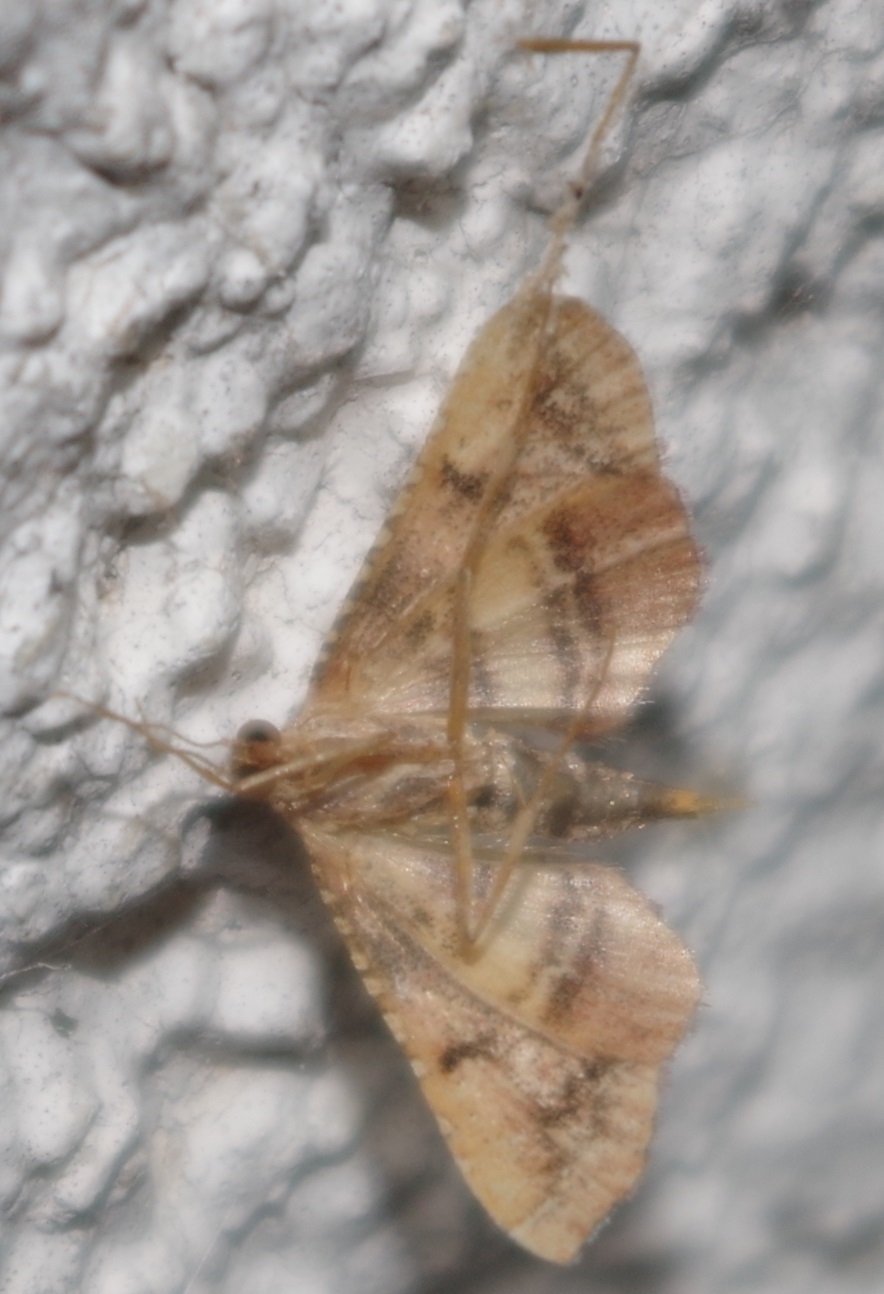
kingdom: Animalia
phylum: Arthropoda
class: Insecta
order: Lepidoptera
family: Pyralidae
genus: Endotricha
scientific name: Endotricha flammealis
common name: Rosy tabby
